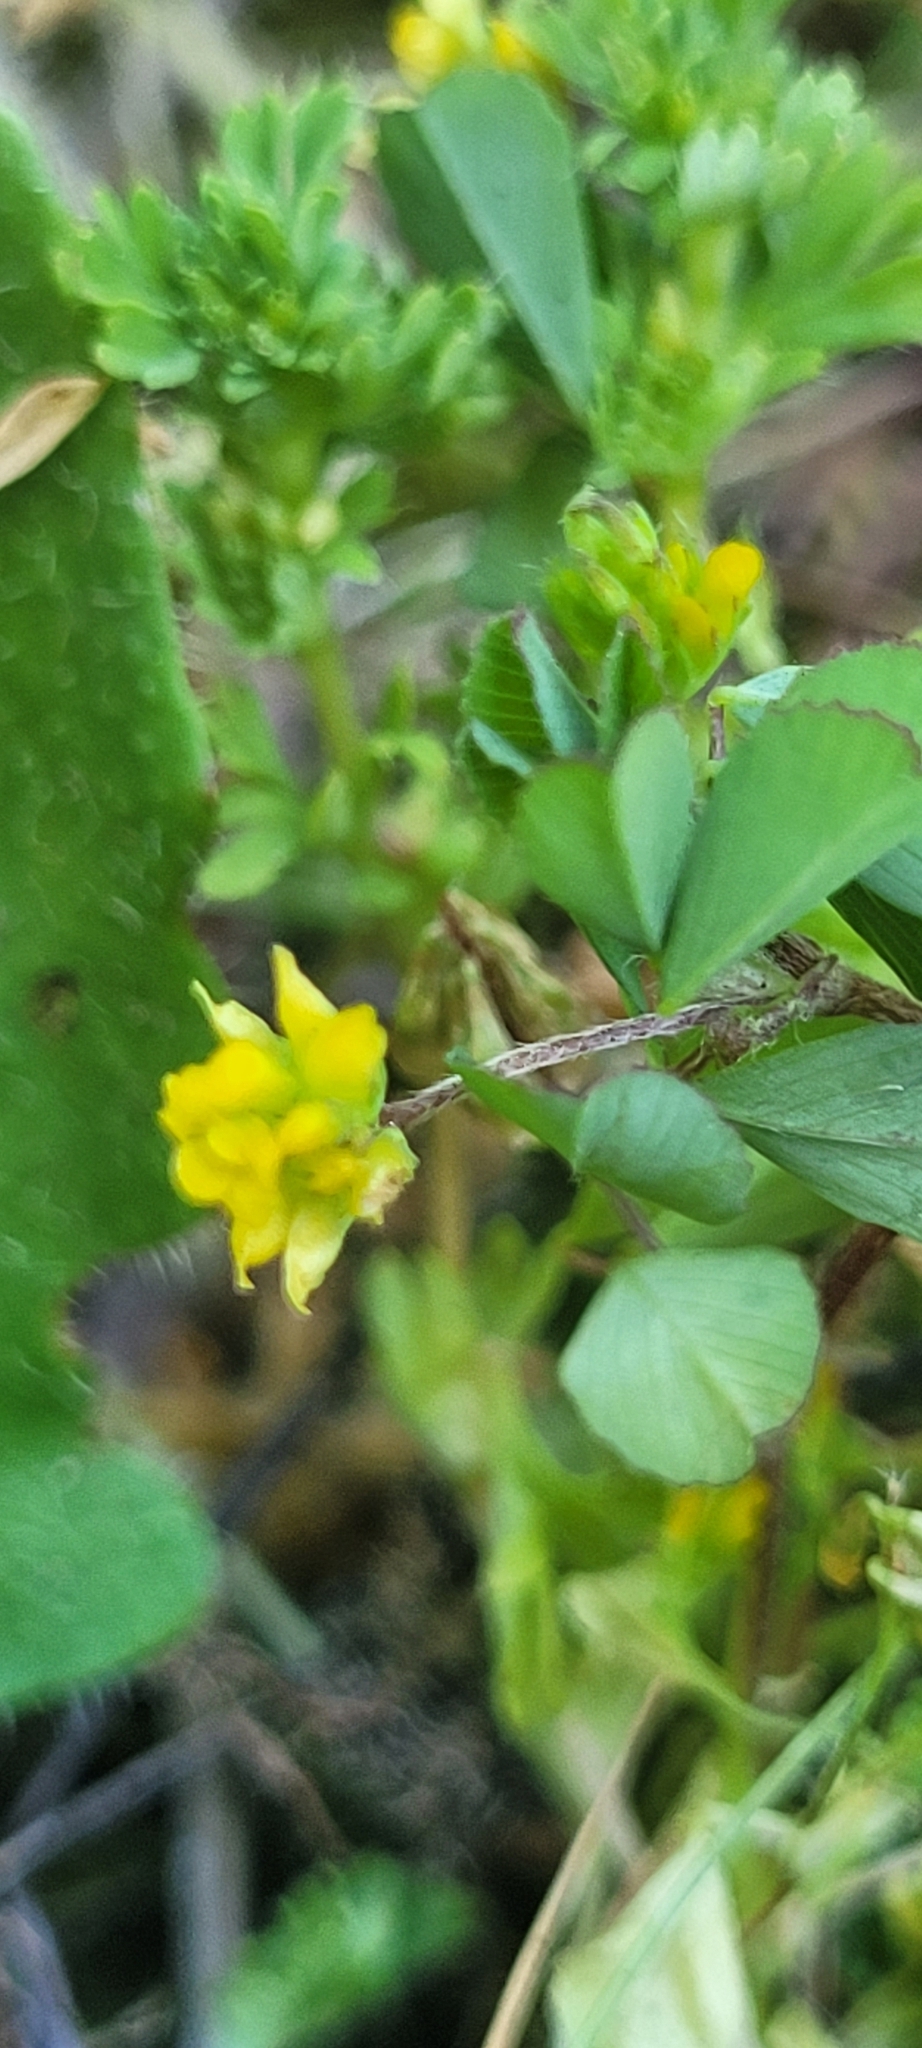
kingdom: Plantae
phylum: Tracheophyta
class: Magnoliopsida
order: Fabales
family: Fabaceae
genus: Trifolium
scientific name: Trifolium dubium
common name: Suckling clover
